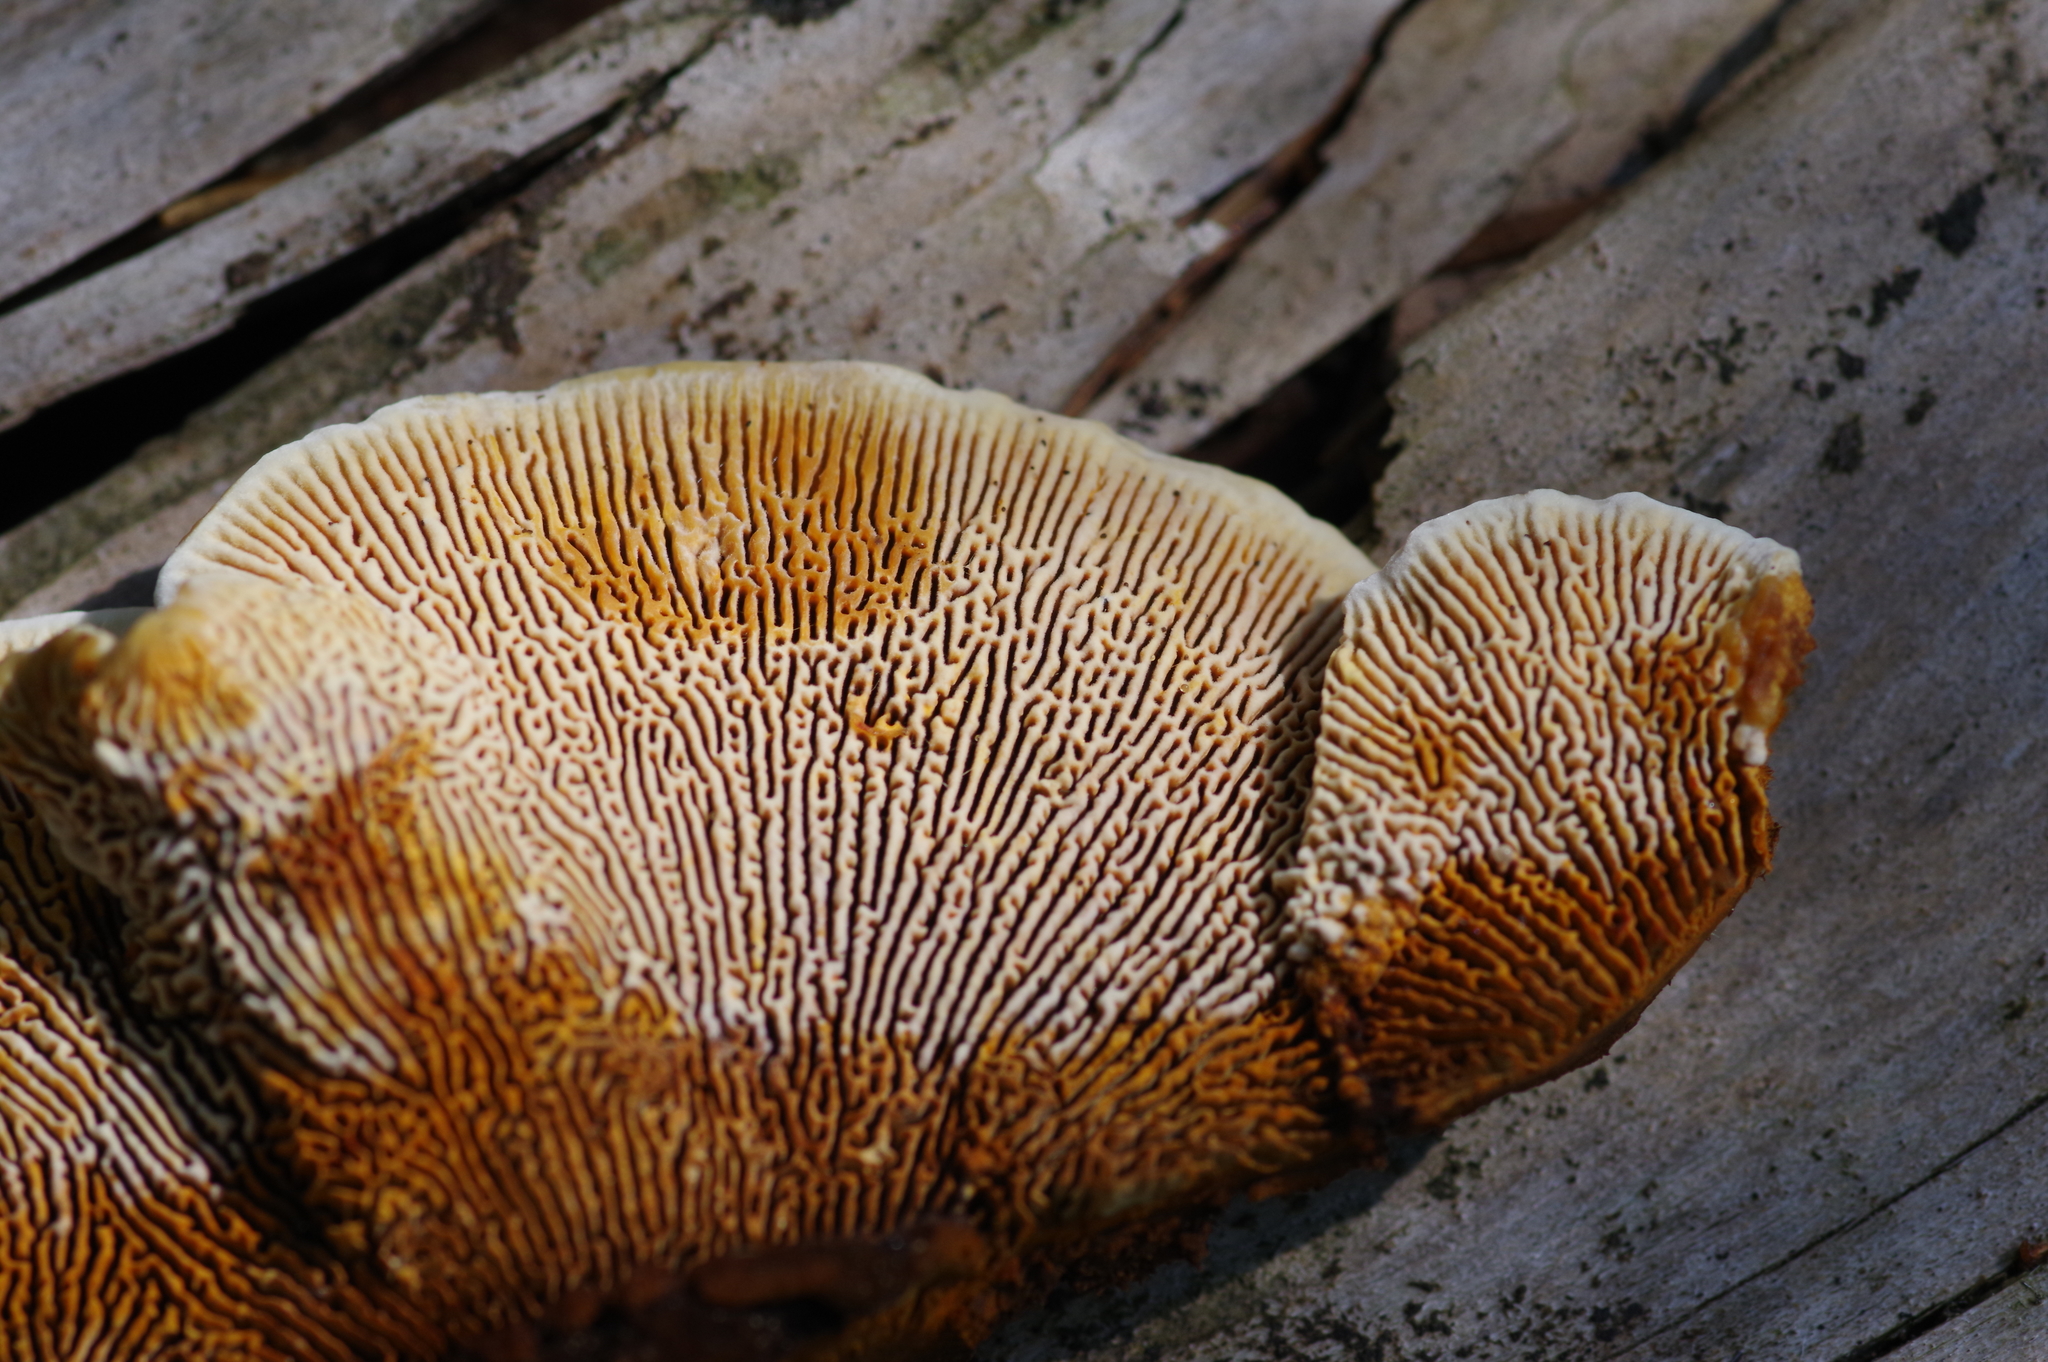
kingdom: Fungi
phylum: Basidiomycota
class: Agaricomycetes
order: Gloeophyllales
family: Gloeophyllaceae
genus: Gloeophyllum
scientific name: Gloeophyllum sepiarium
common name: Conifer mazegill
